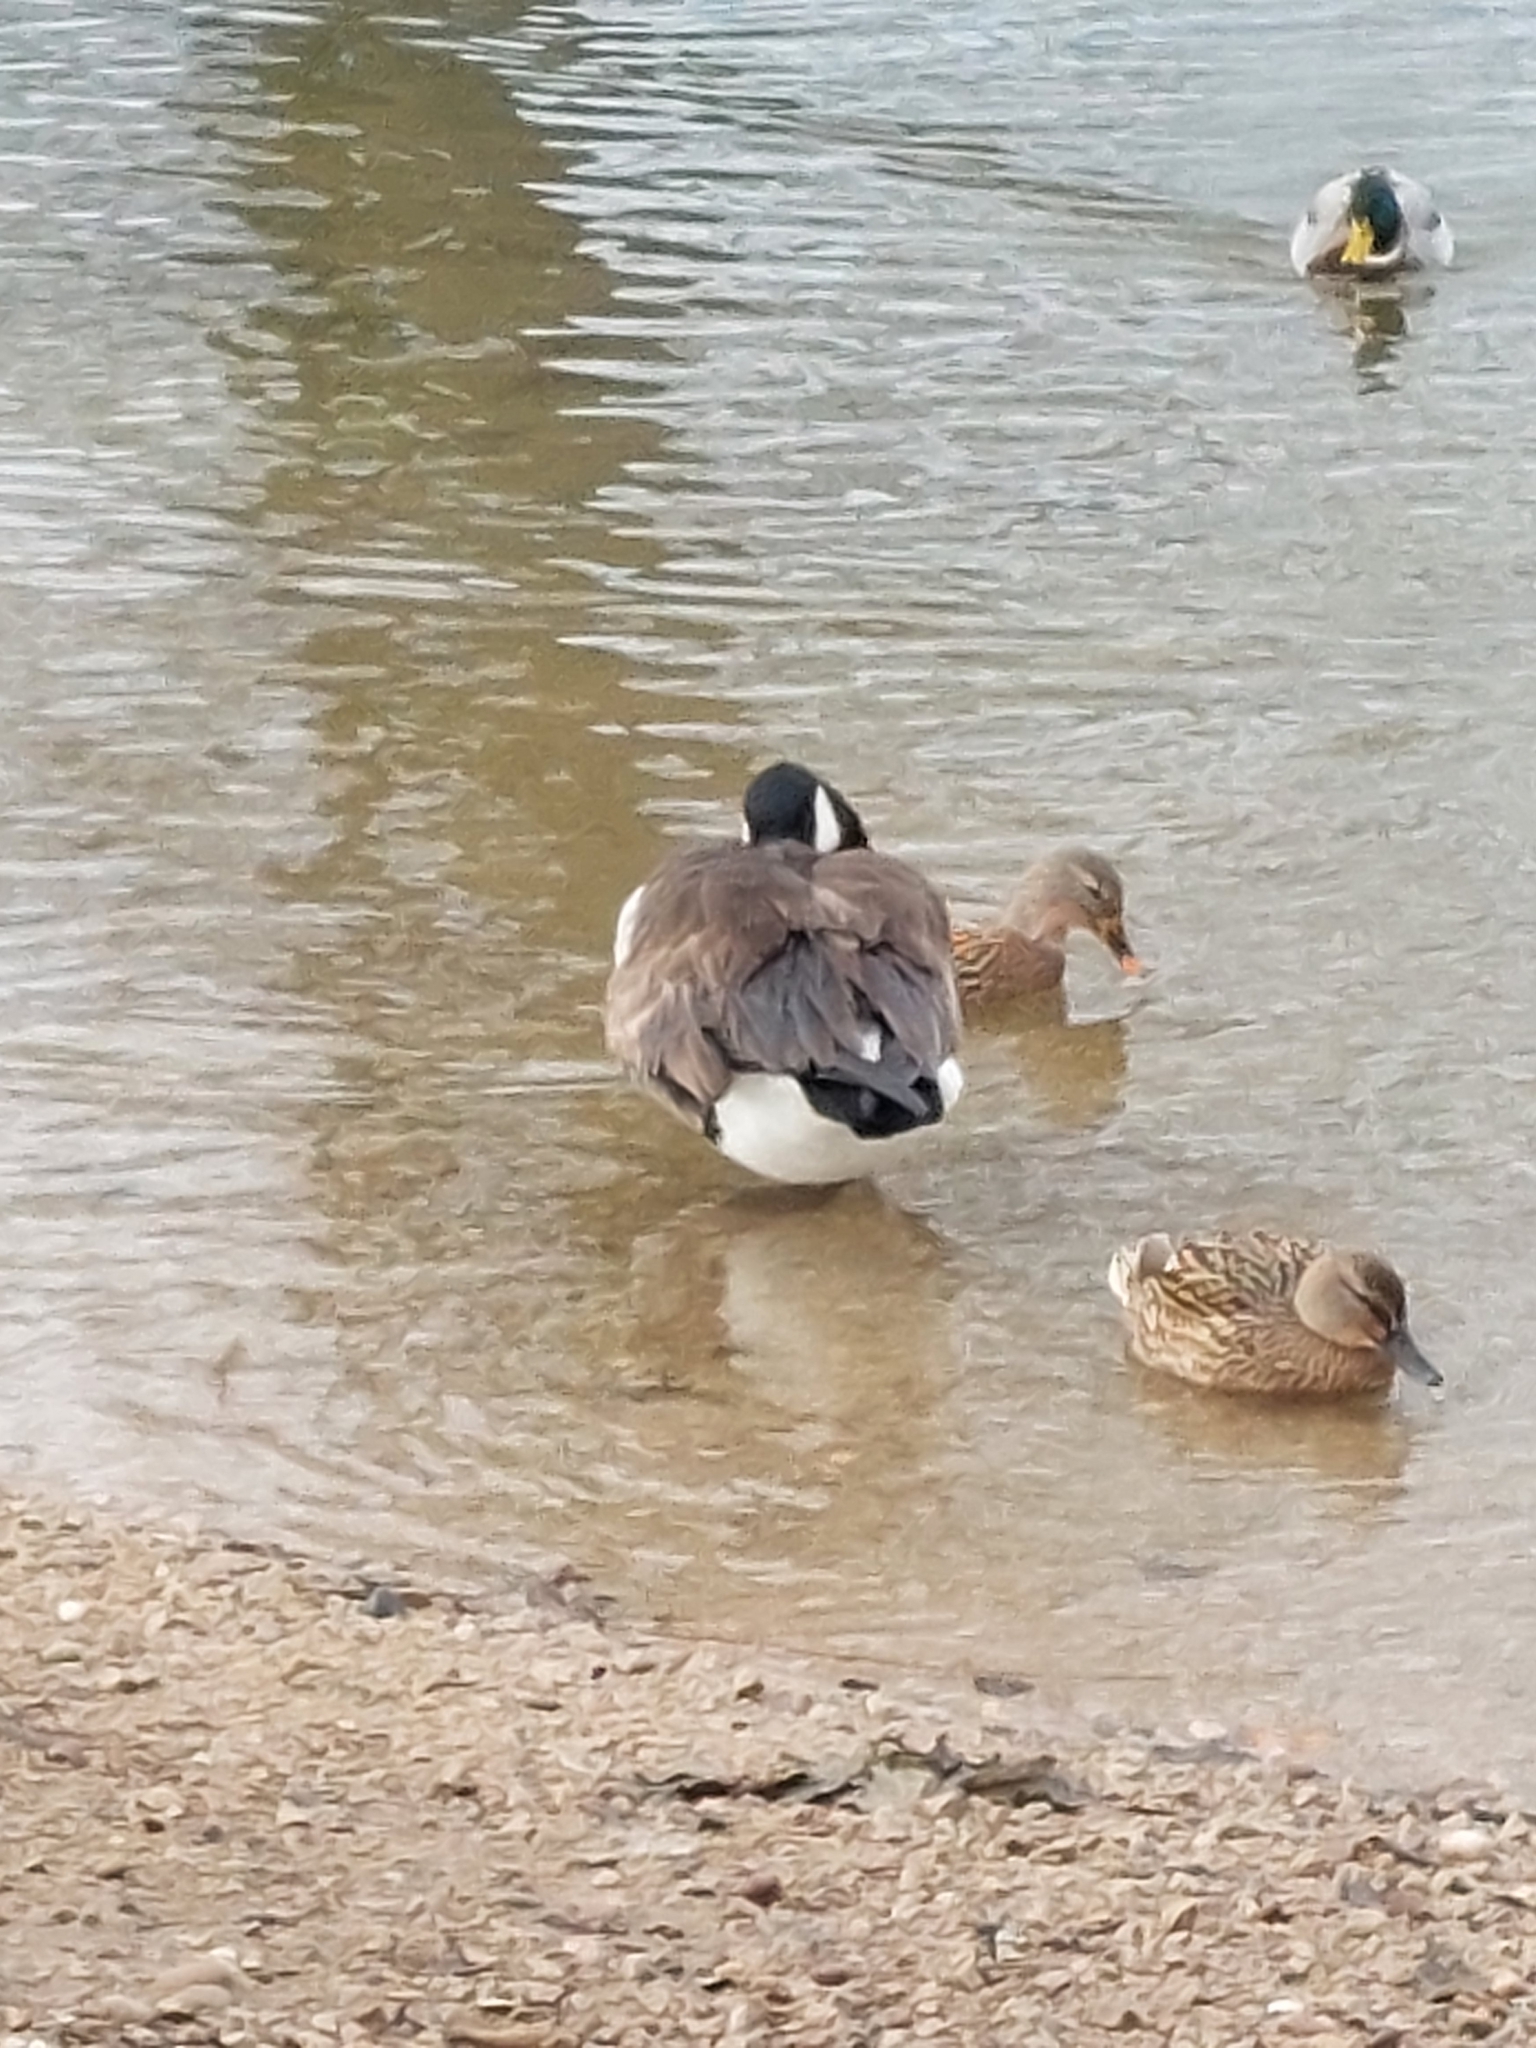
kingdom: Animalia
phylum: Chordata
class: Aves
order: Anseriformes
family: Anatidae
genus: Branta
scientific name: Branta canadensis
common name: Canada goose
